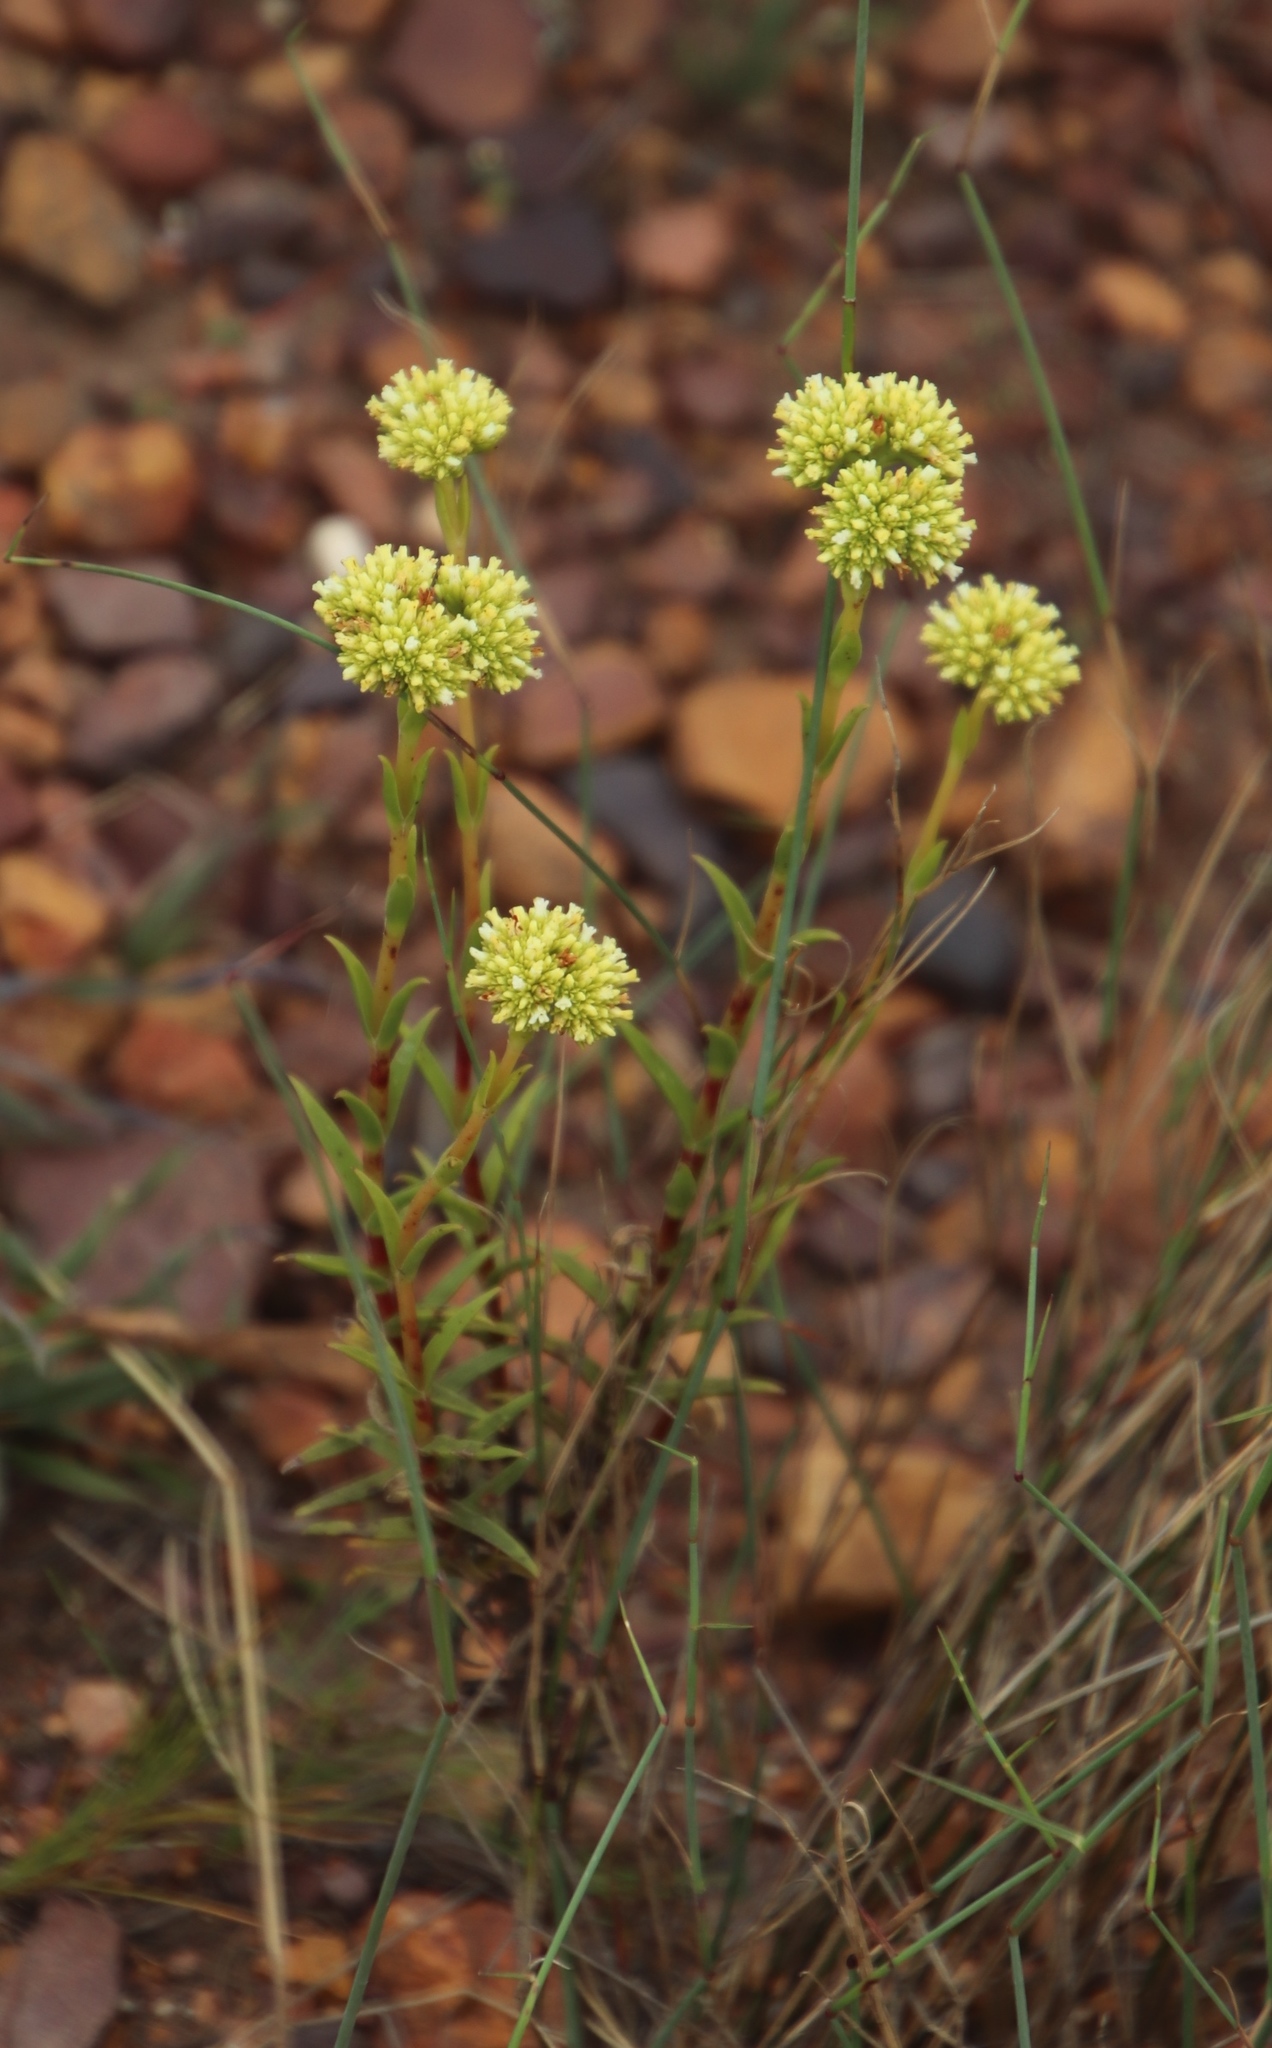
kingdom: Plantae
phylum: Tracheophyta
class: Magnoliopsida
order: Saxifragales
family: Crassulaceae
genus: Crassula
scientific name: Crassula subulata
